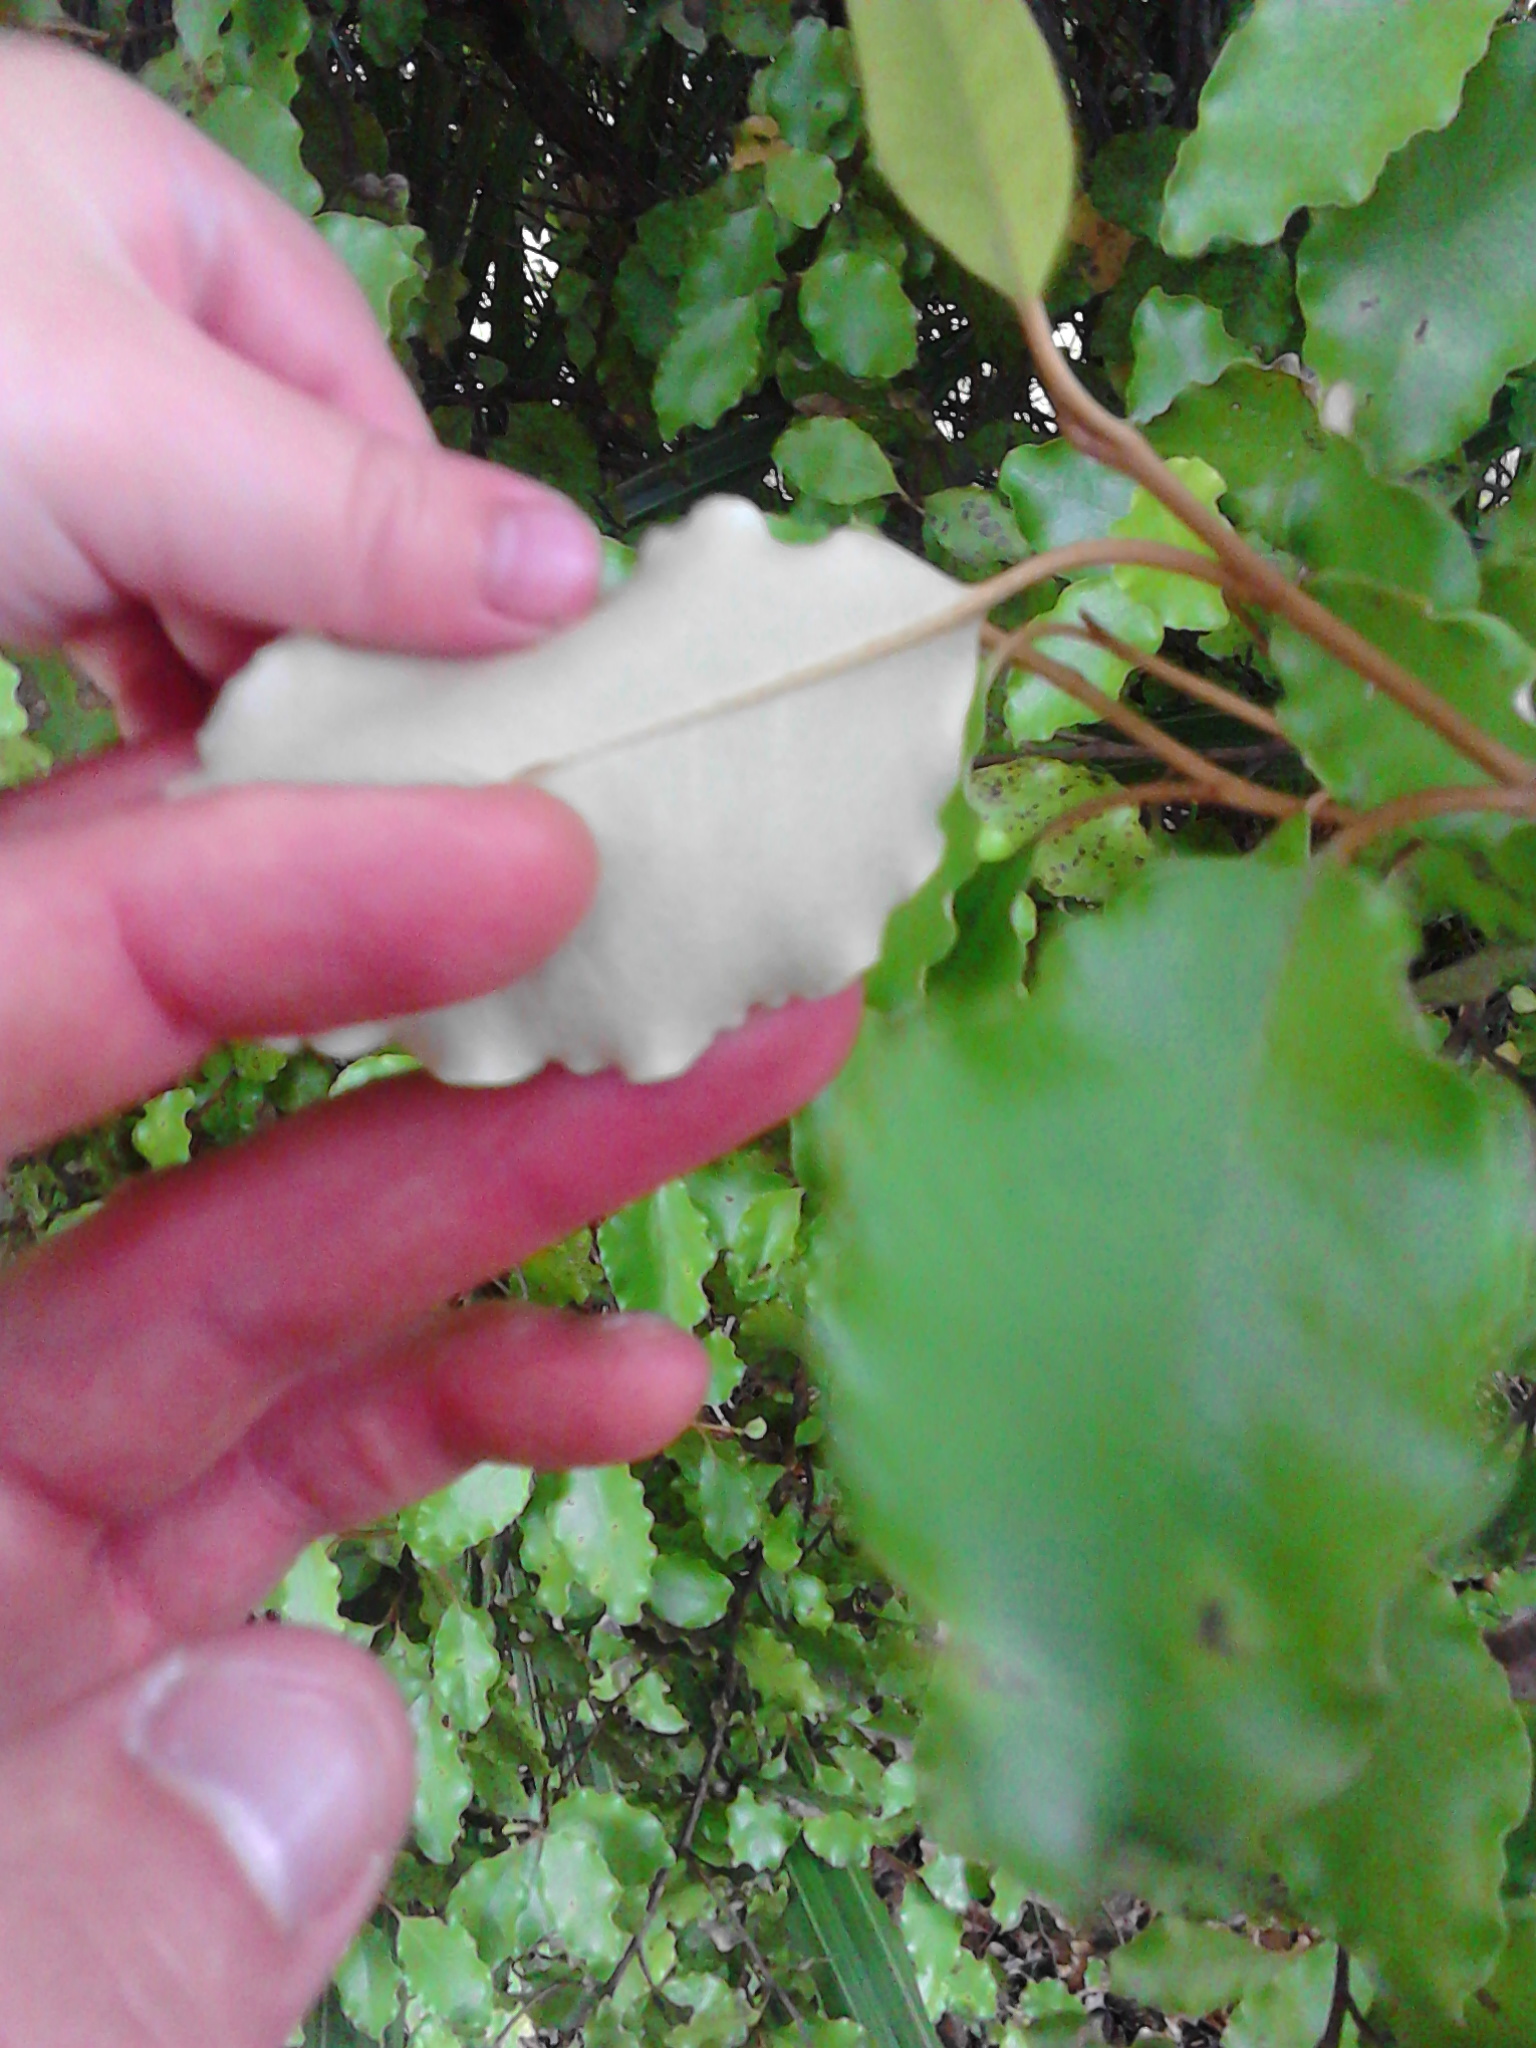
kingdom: Plantae
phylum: Tracheophyta
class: Magnoliopsida
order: Asterales
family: Asteraceae
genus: Olearia
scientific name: Olearia paniculata
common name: Akiraho
